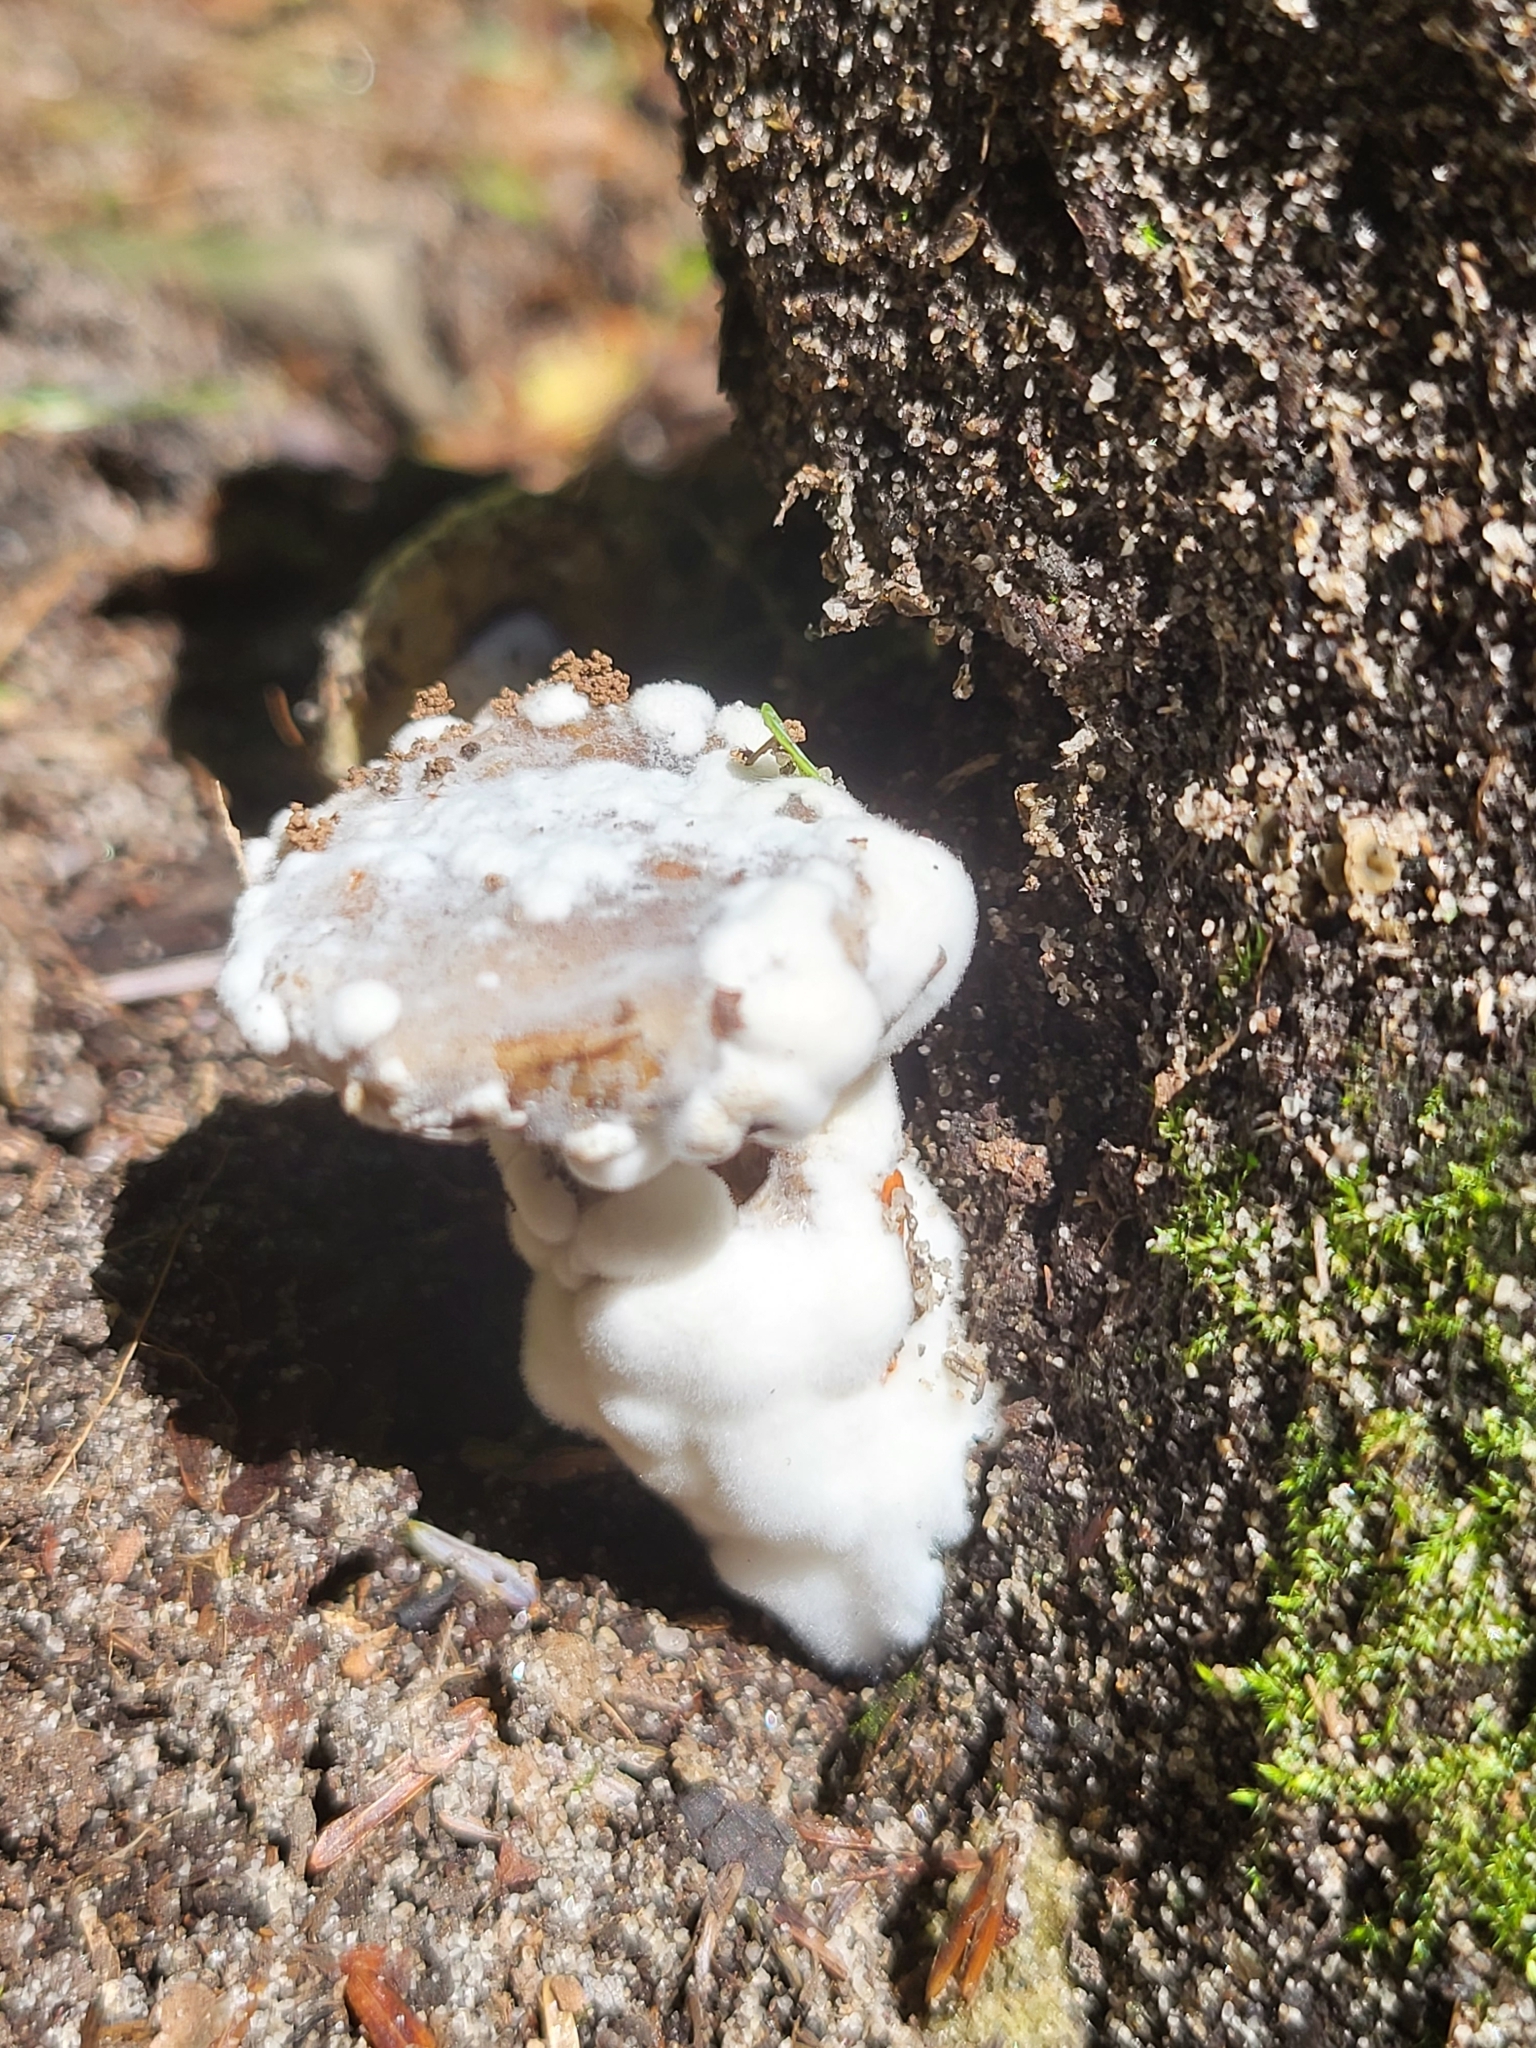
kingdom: Fungi
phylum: Ascomycota
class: Sordariomycetes
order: Hypocreales
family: Hypocreaceae
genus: Hypomyces
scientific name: Hypomyces chrysospermus
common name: Bolete mould
